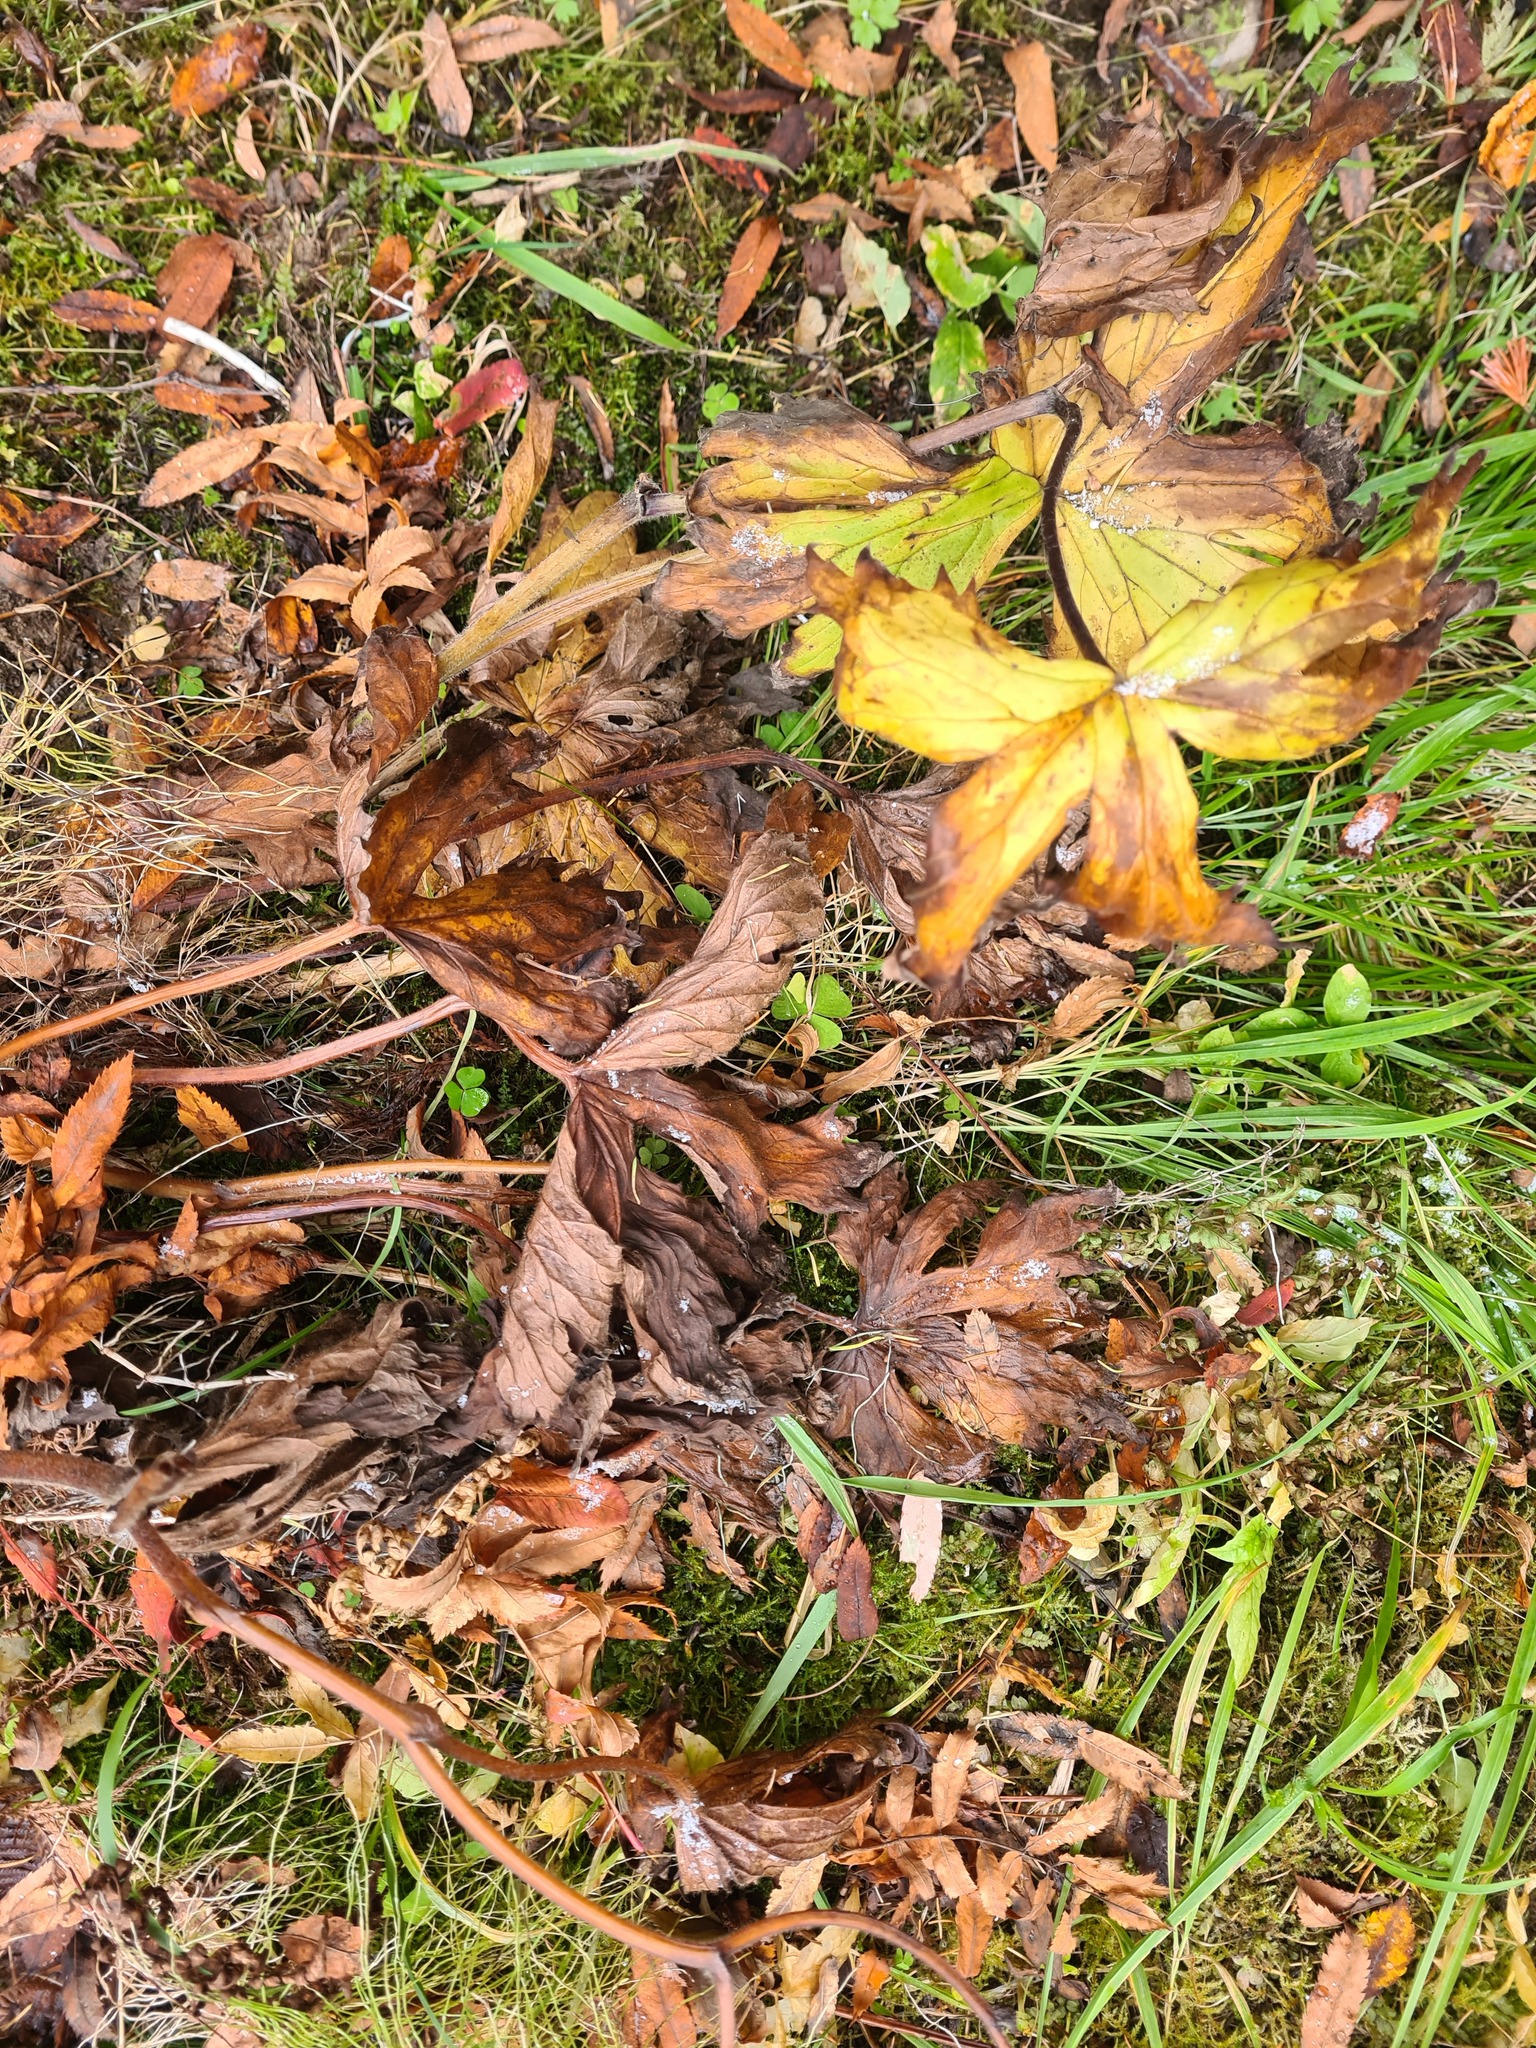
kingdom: Plantae
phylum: Tracheophyta
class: Magnoliopsida
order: Ranunculales
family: Ranunculaceae
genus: Aconitum
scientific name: Aconitum septentrionale
